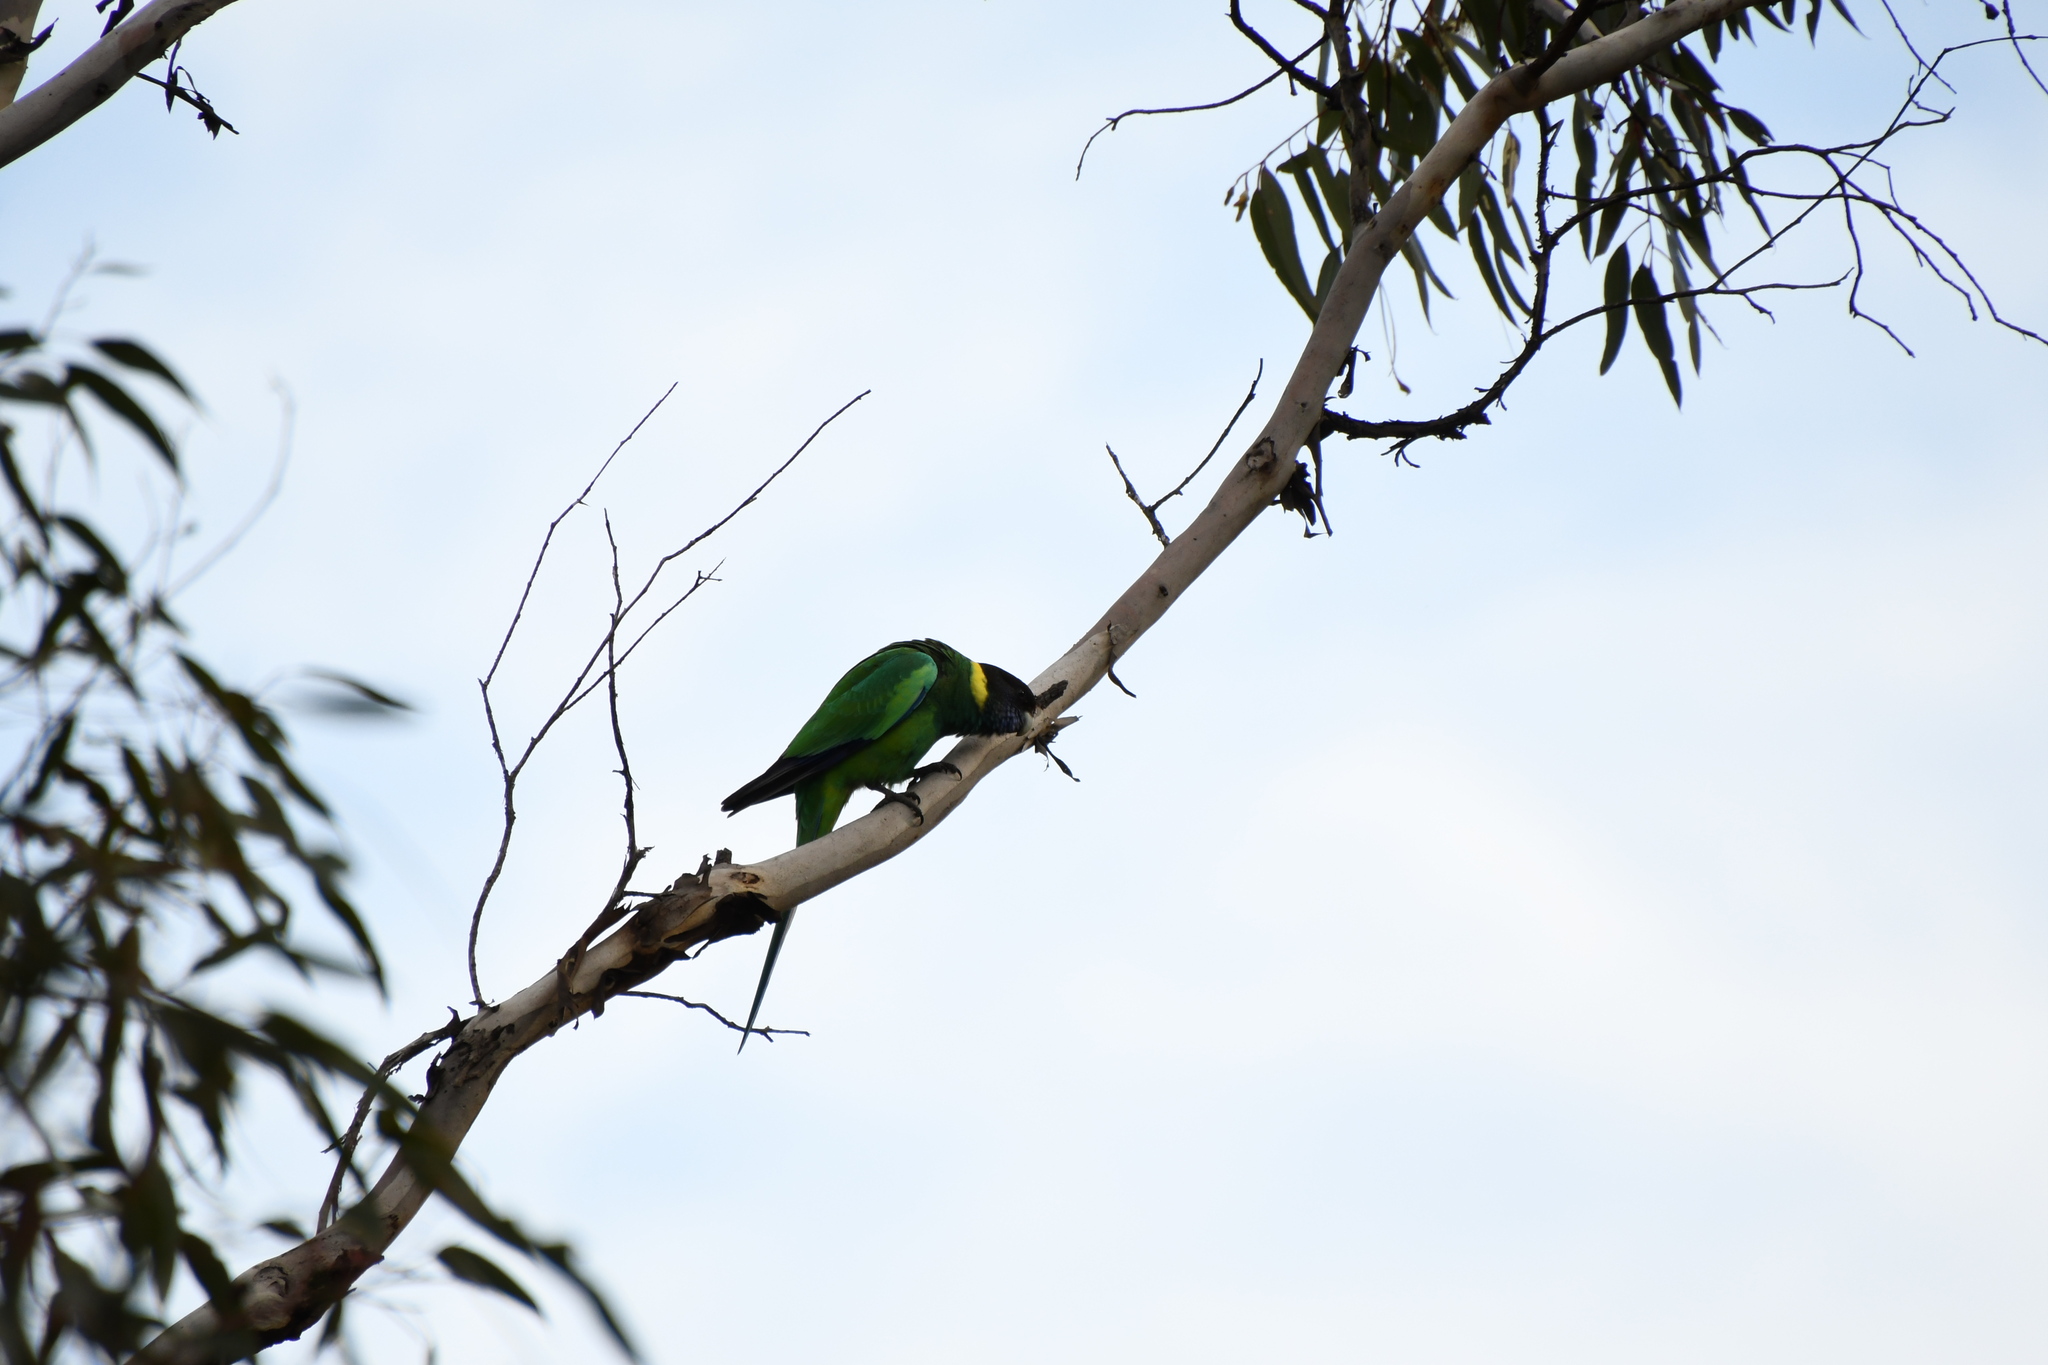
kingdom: Animalia
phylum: Chordata
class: Aves
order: Psittaciformes
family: Psittacidae
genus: Barnardius
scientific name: Barnardius zonarius
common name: Australian ringneck
